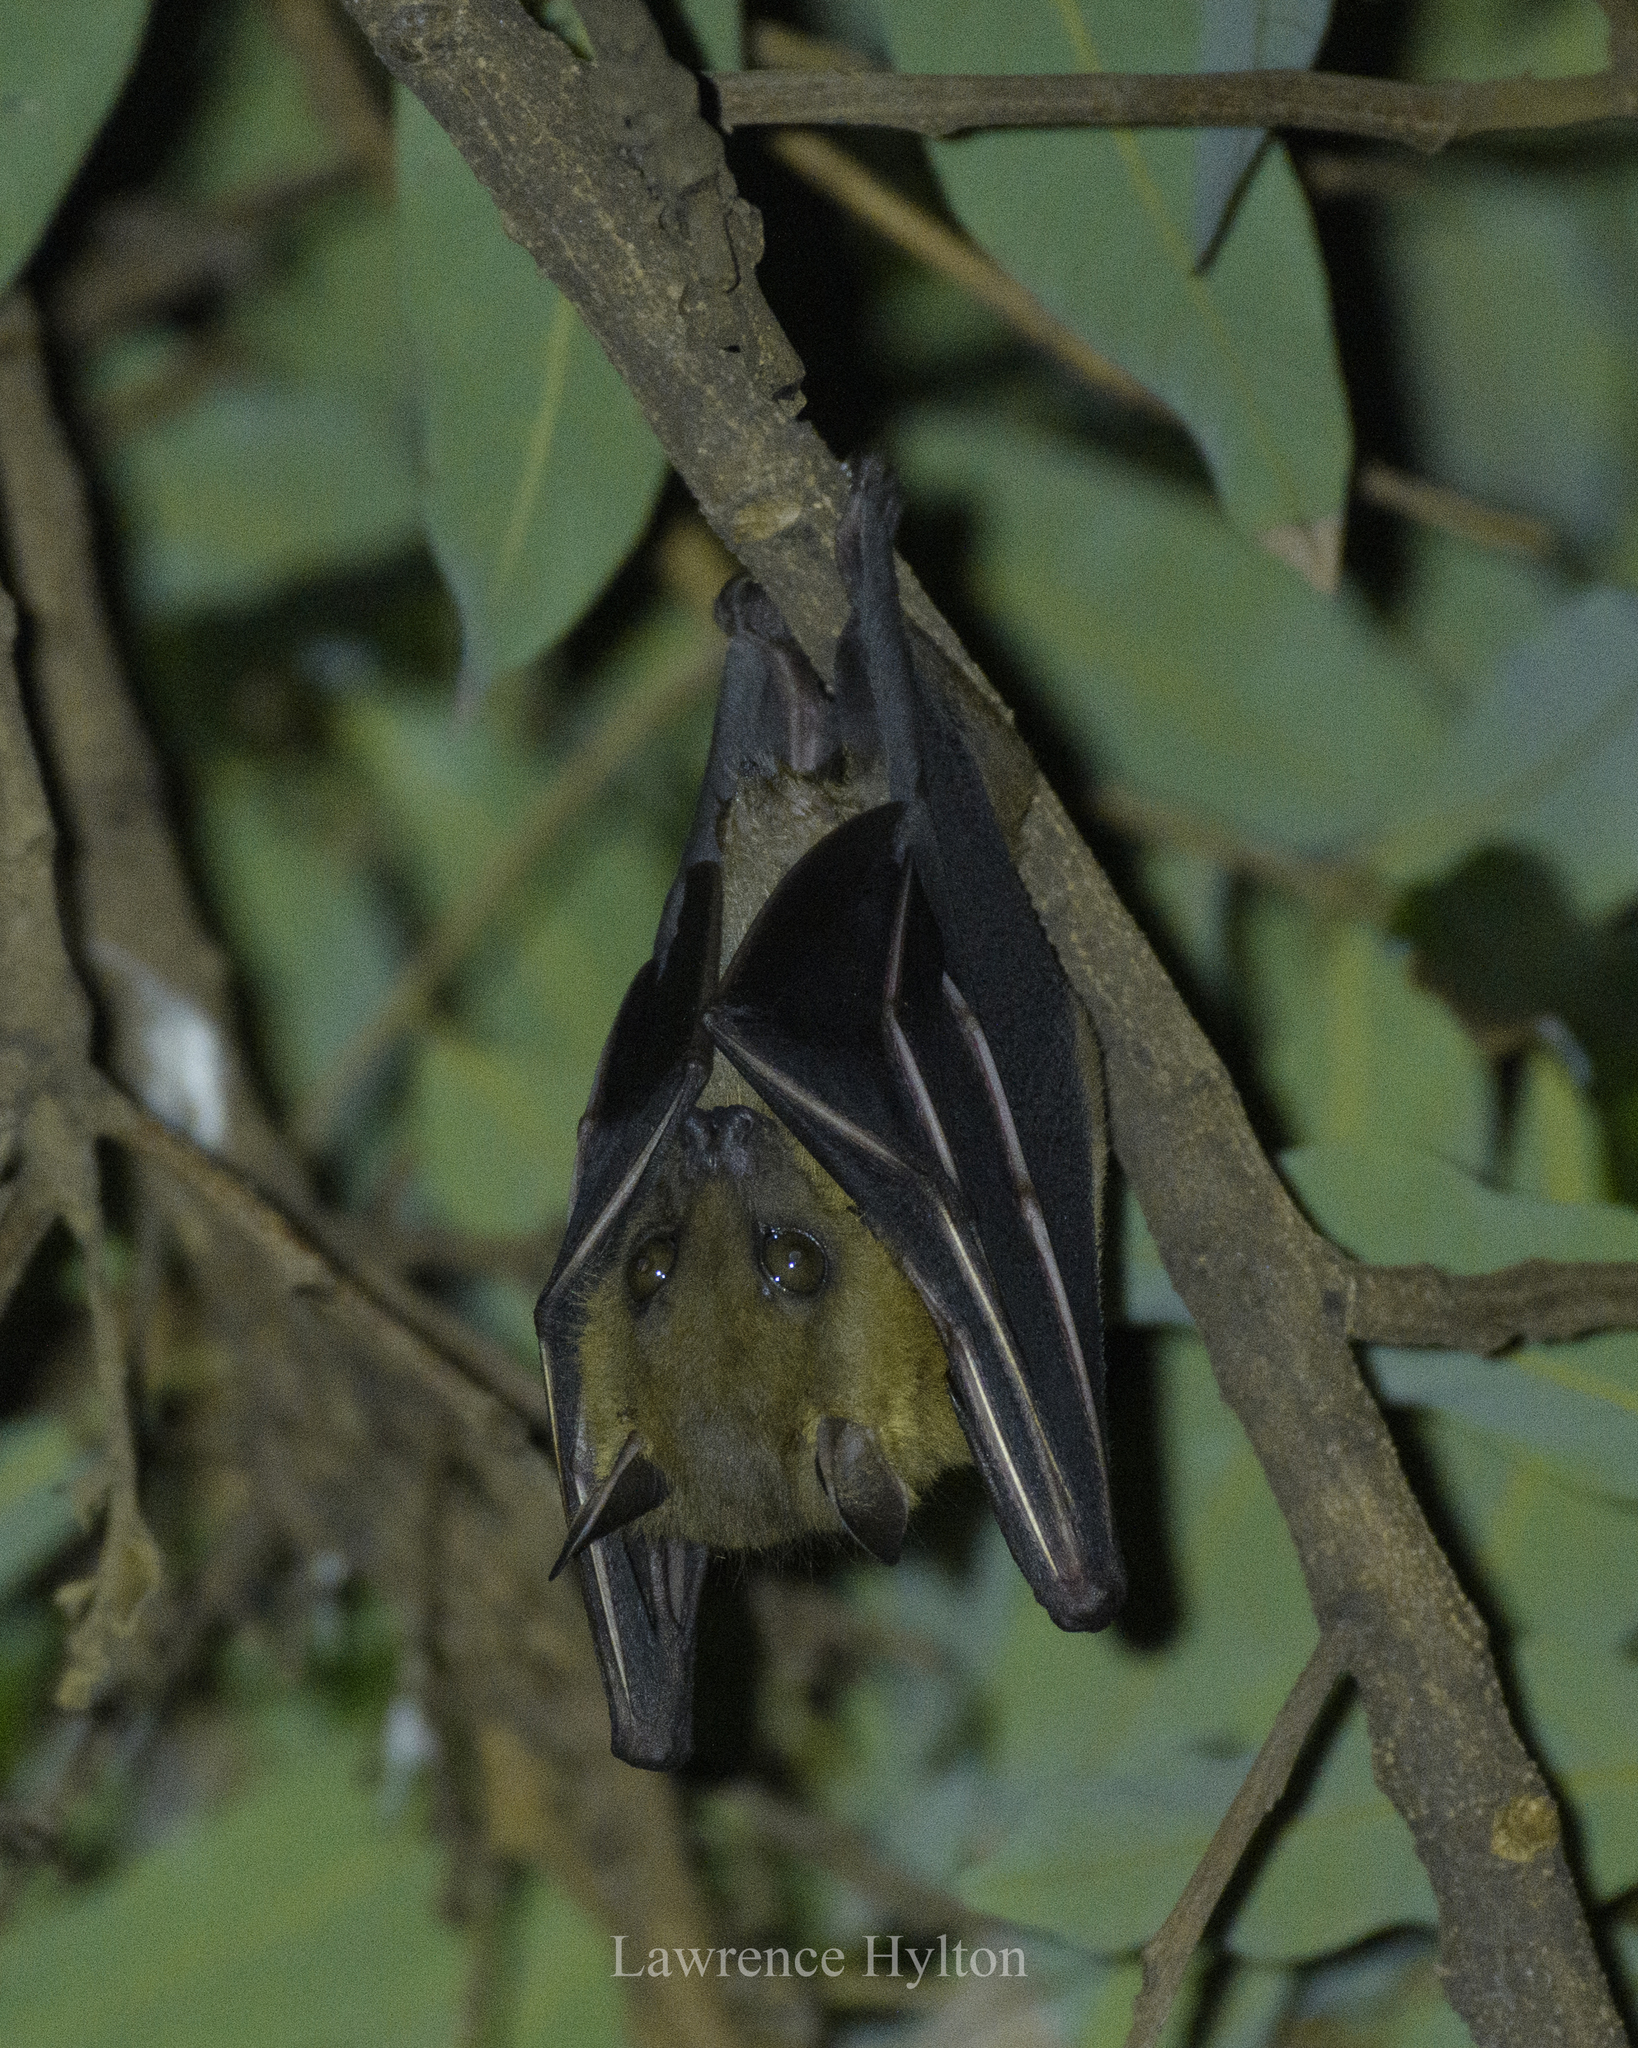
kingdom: Animalia
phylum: Chordata
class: Mammalia
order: Chiroptera
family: Pteropodidae
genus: Cynopterus
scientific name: Cynopterus sphinx
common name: Greater short-nosed fruit bat
